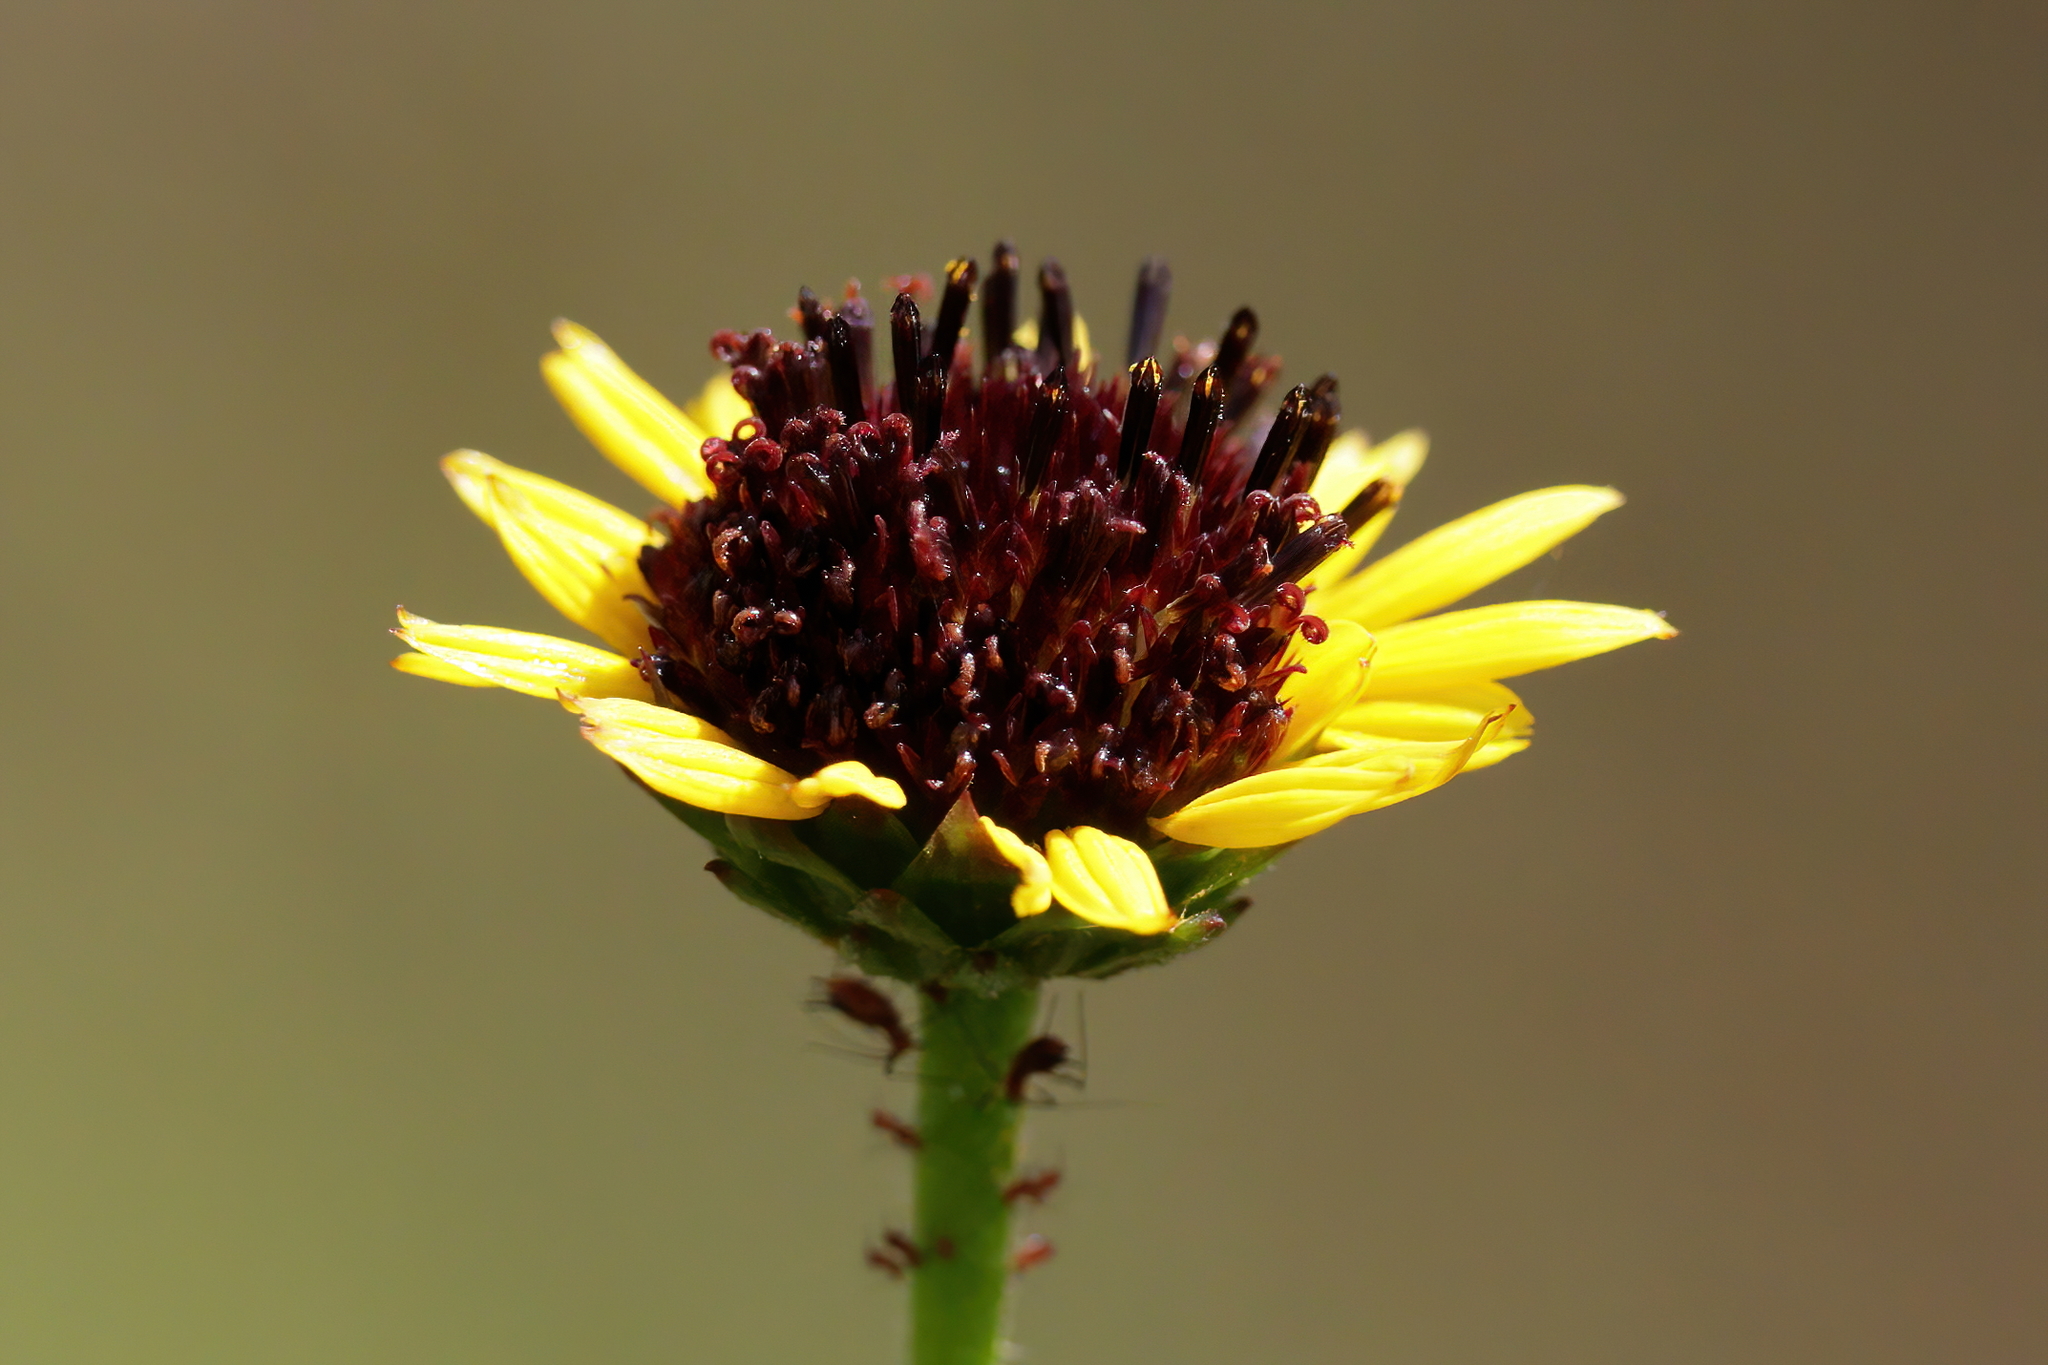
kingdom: Plantae
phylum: Tracheophyta
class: Magnoliopsida
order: Asterales
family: Asteraceae
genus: Helianthus
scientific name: Helianthus heterophyllus
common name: Wetland sunflower
